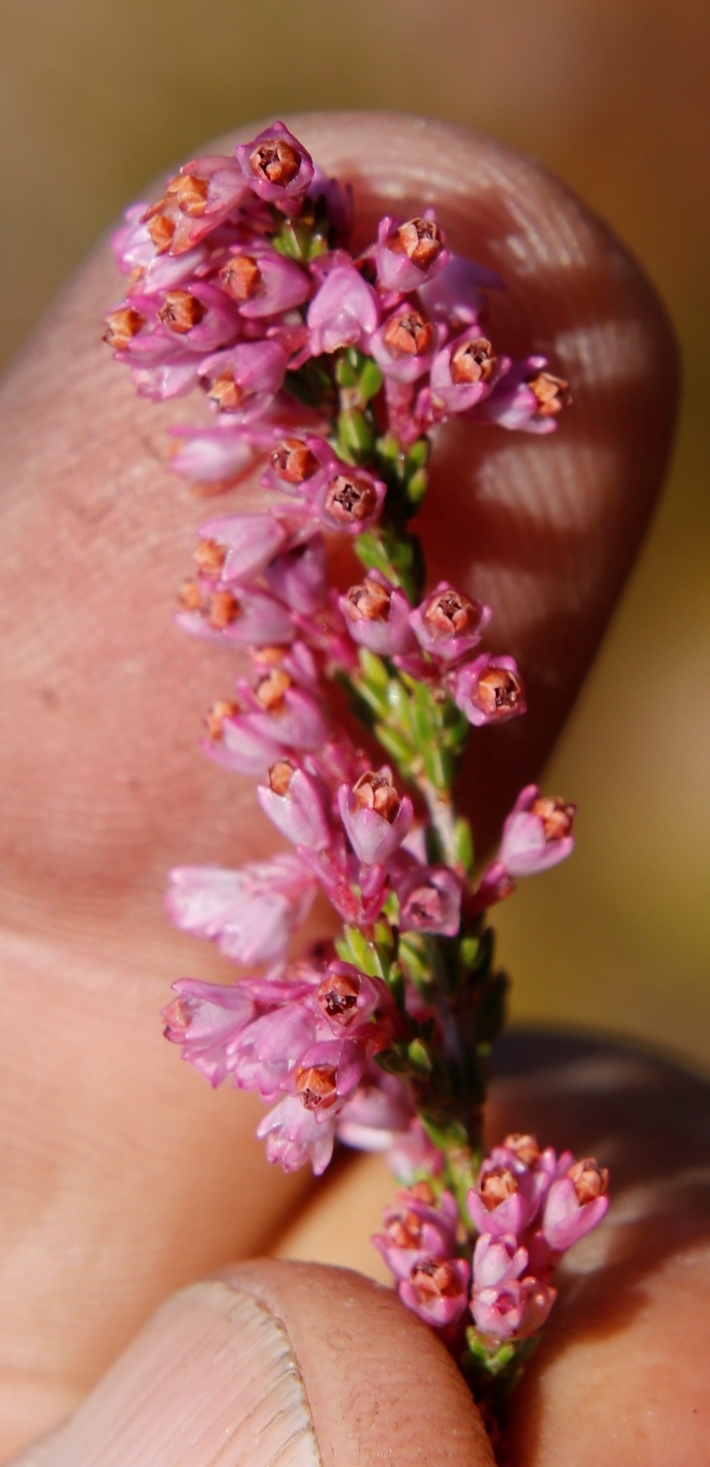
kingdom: Plantae
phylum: Tracheophyta
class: Magnoliopsida
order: Ericales
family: Ericaceae
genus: Erica
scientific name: Erica gnaphaloides
